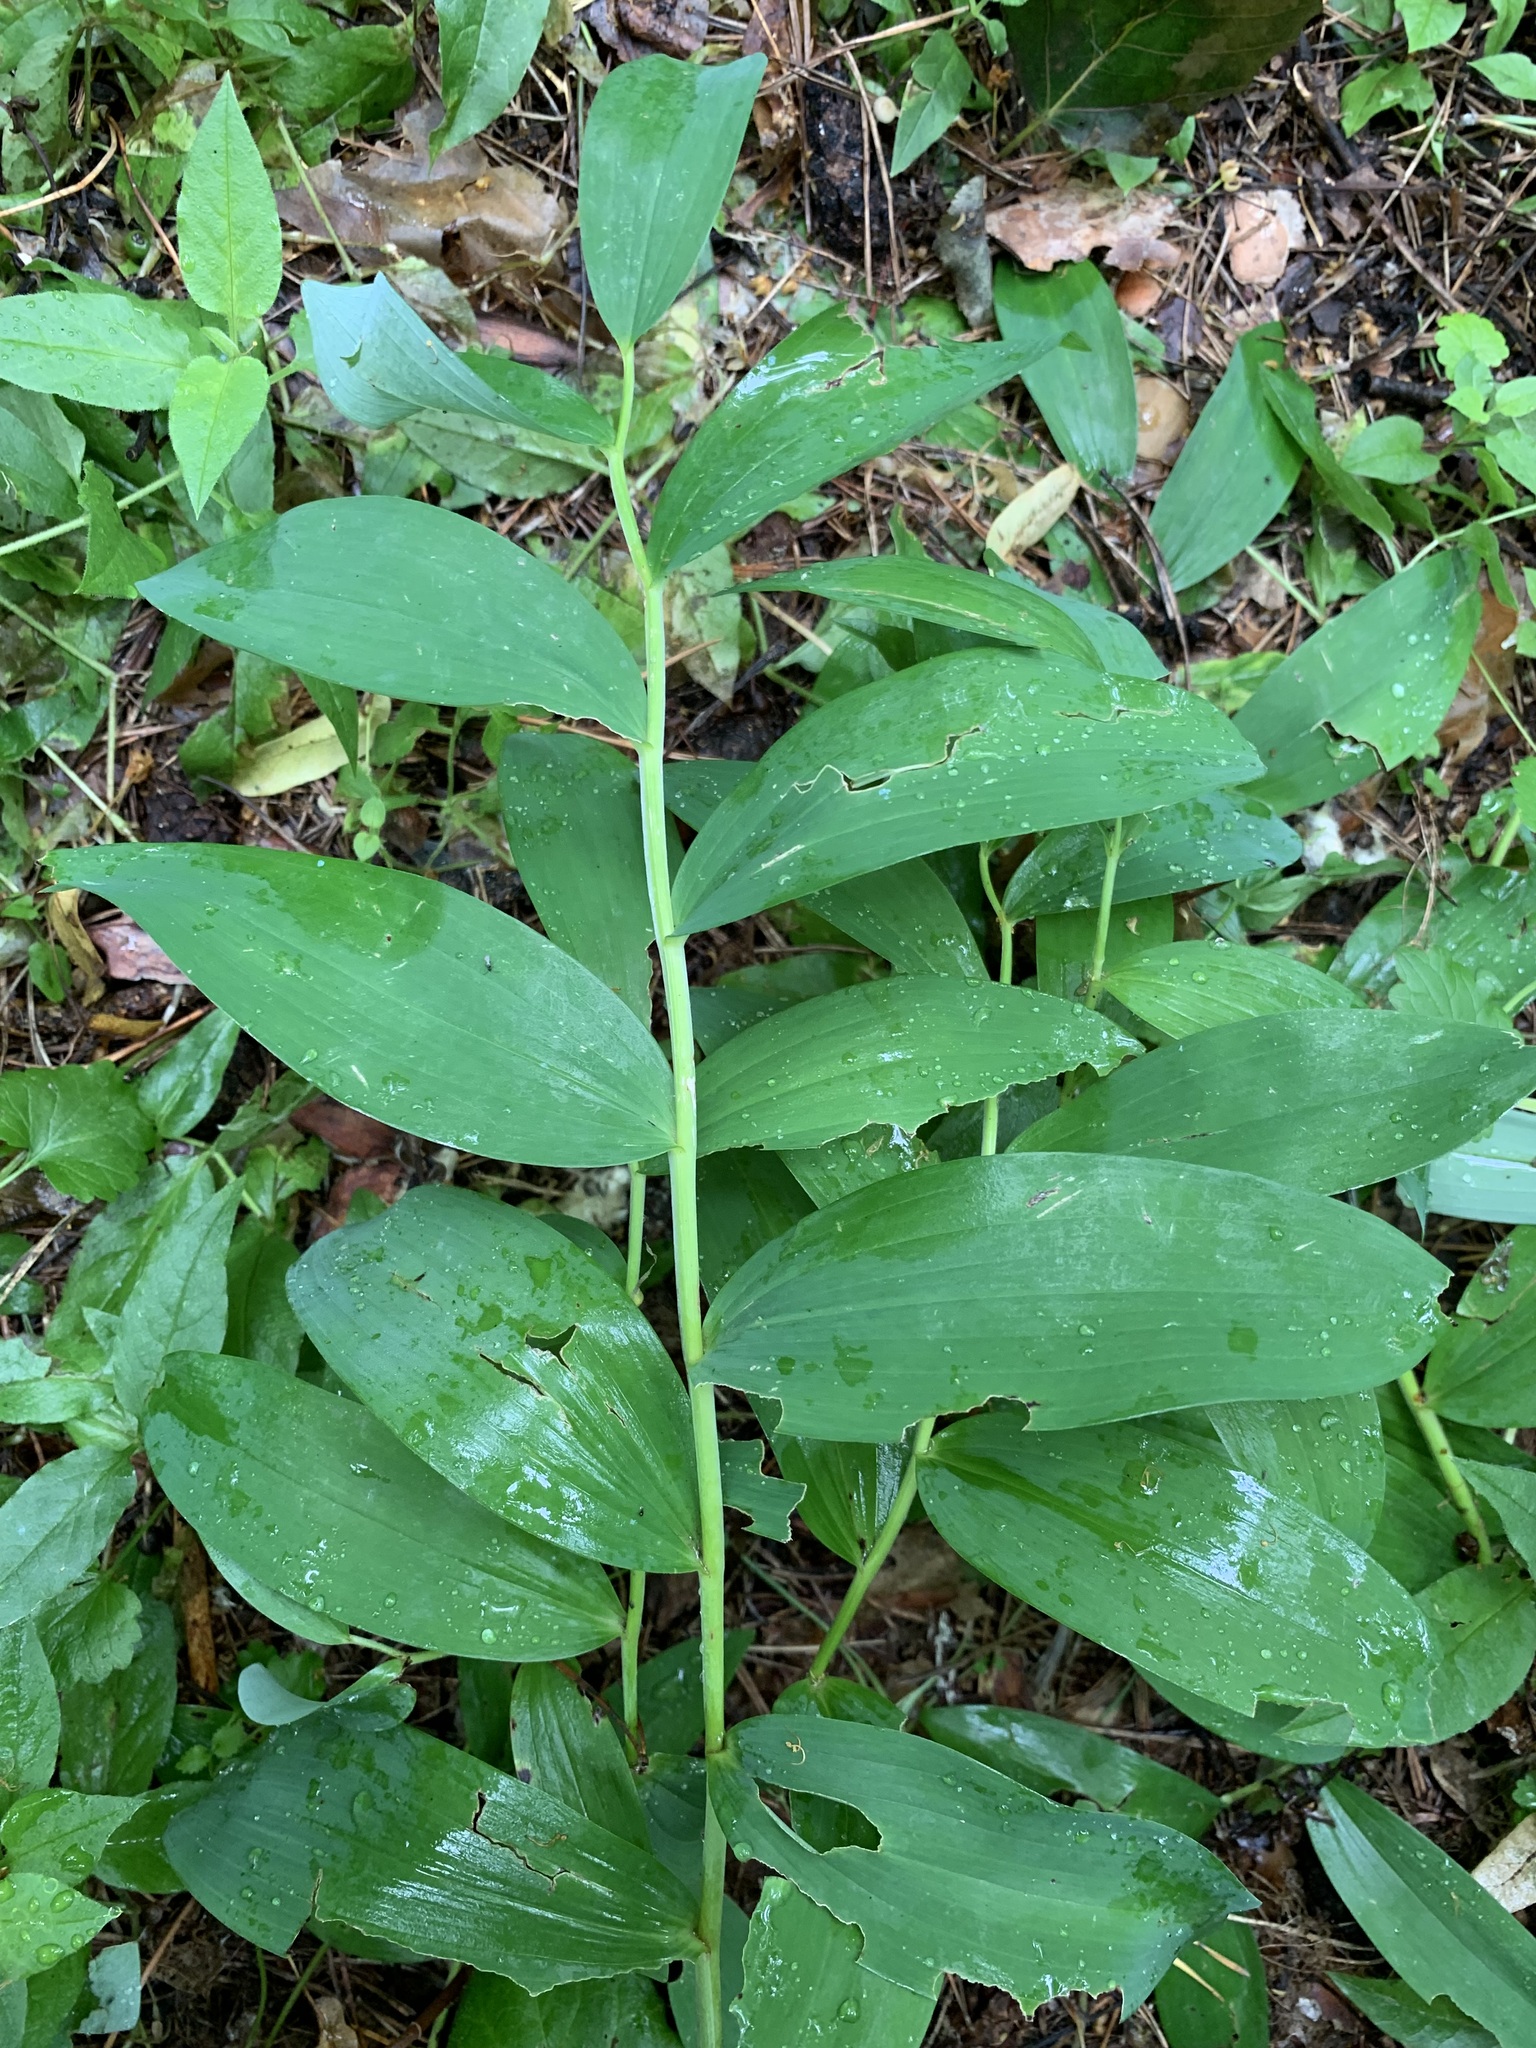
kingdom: Plantae
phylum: Tracheophyta
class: Liliopsida
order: Asparagales
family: Asparagaceae
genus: Polygonatum
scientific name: Polygonatum odoratum
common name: Angular solomon's-seal
